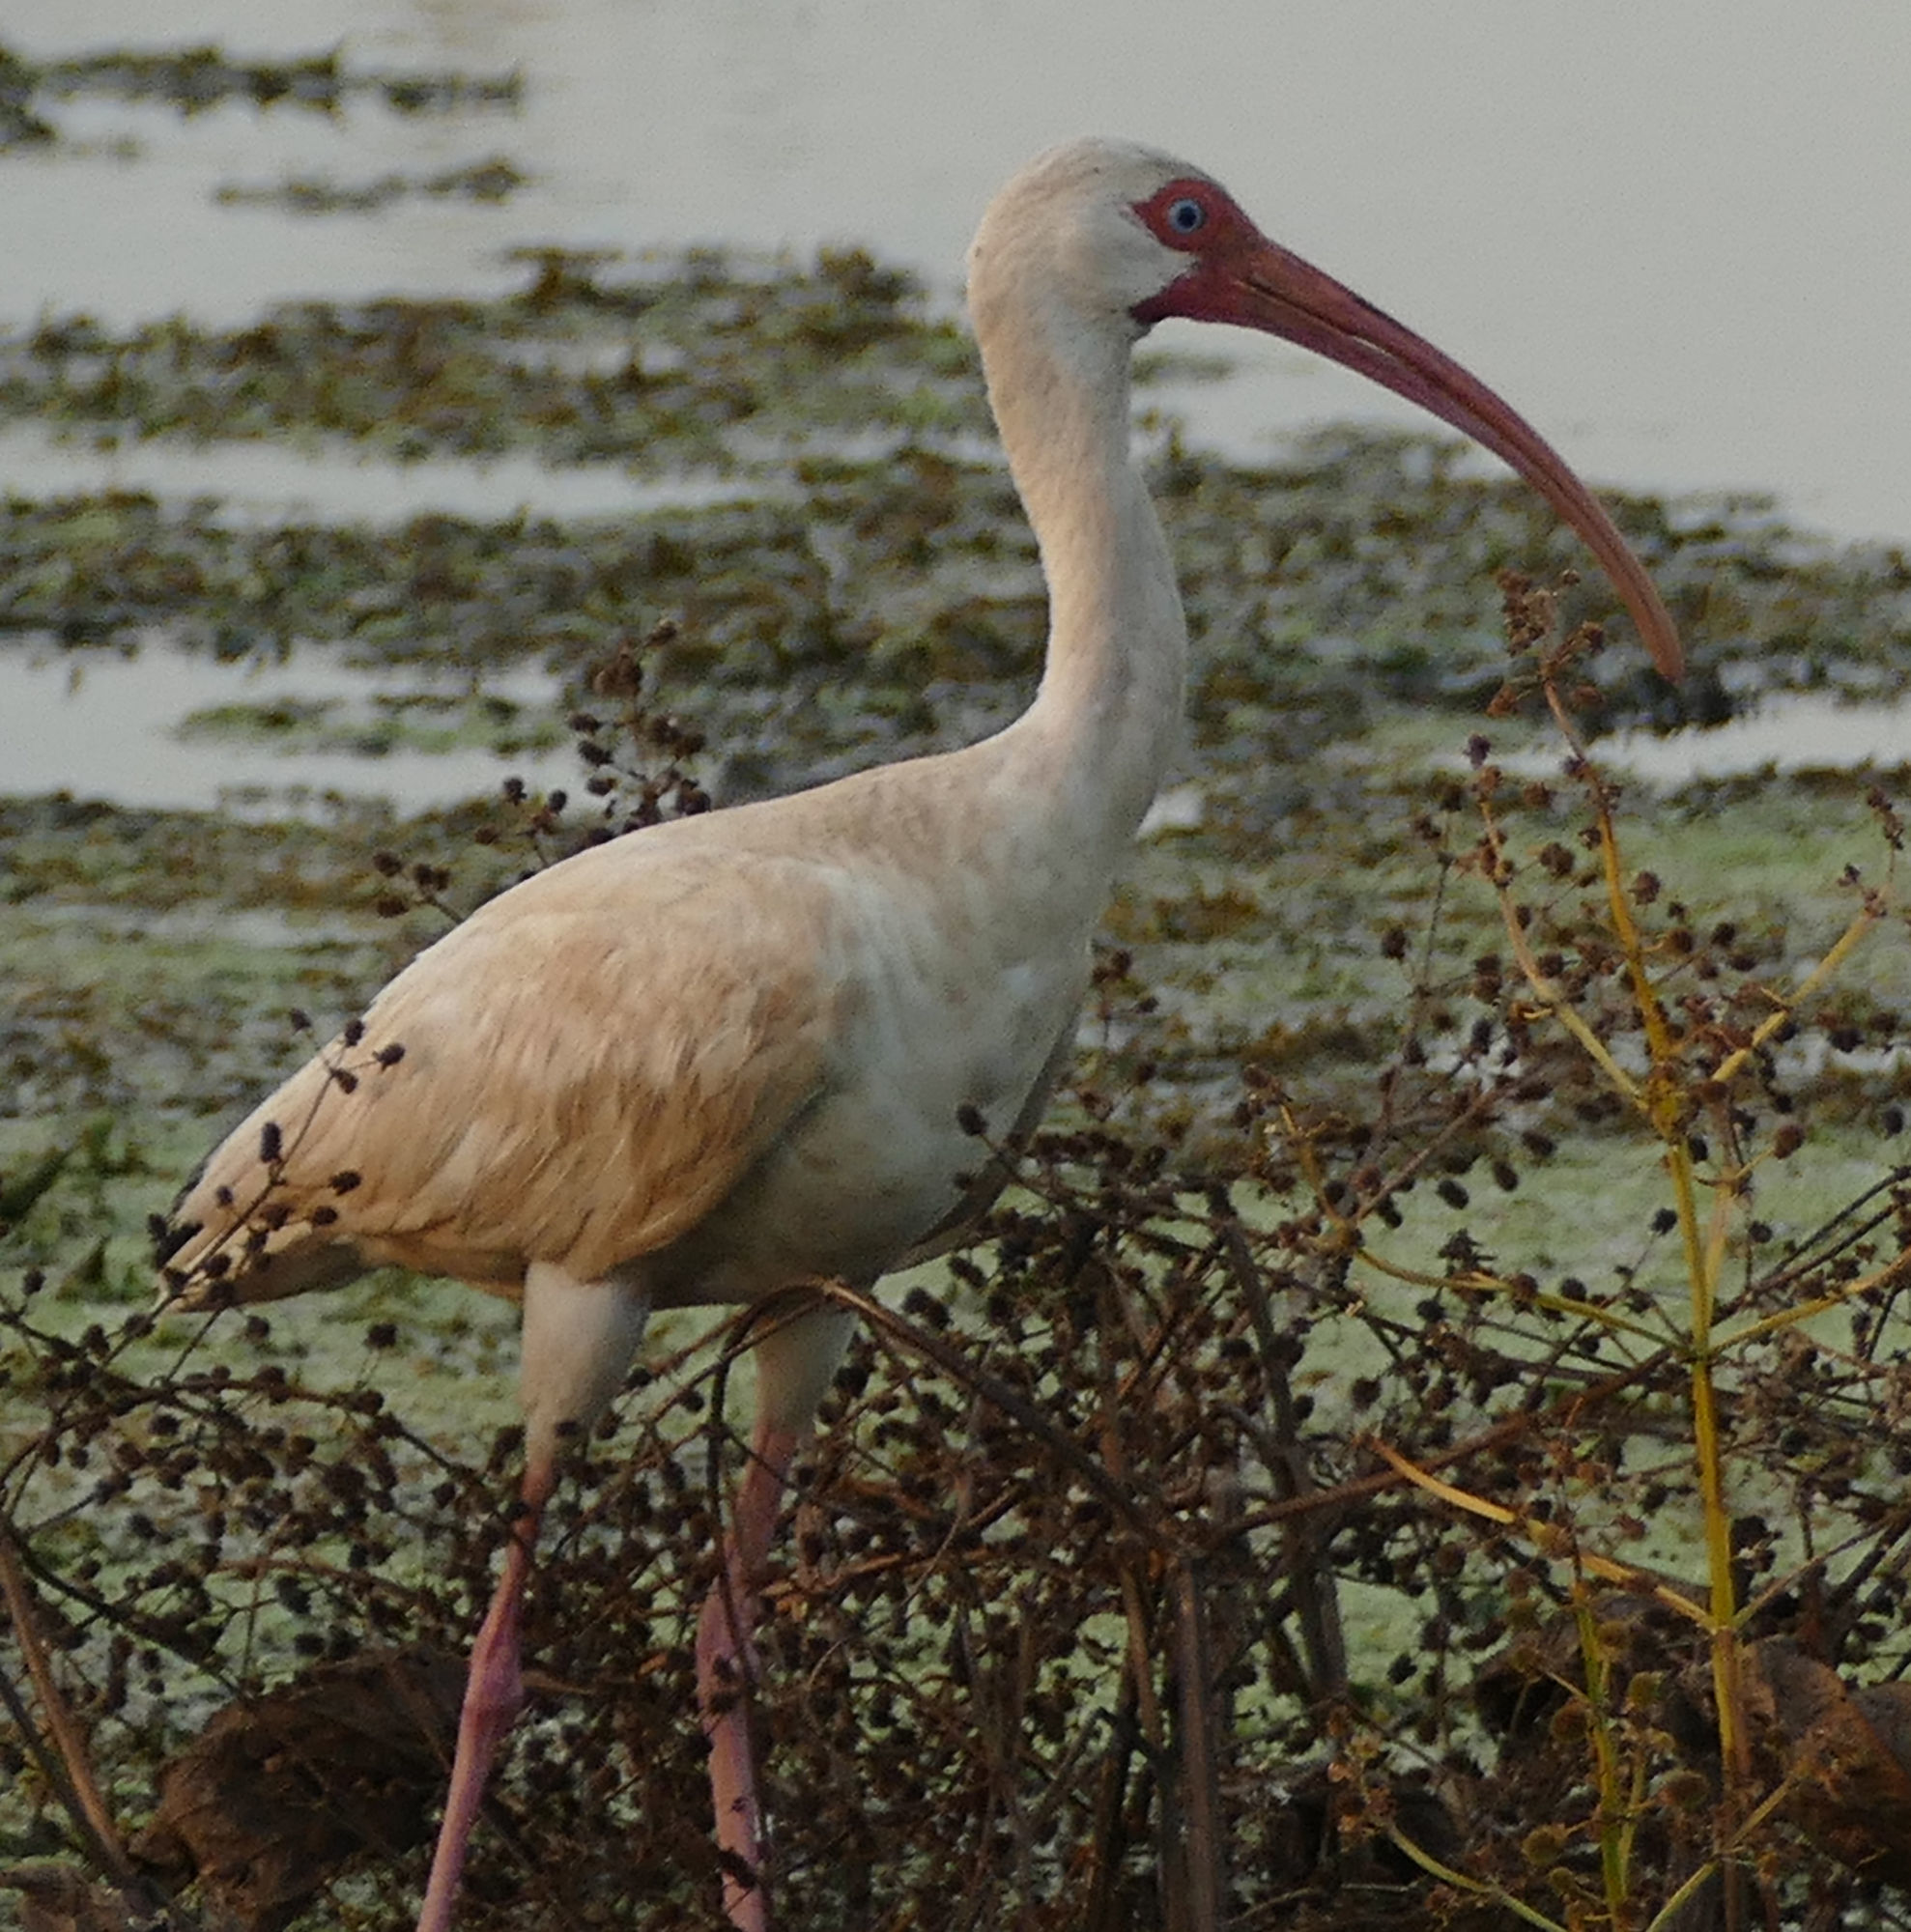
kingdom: Animalia
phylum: Chordata
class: Aves
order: Pelecaniformes
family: Threskiornithidae
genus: Eudocimus
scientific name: Eudocimus albus
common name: White ibis
